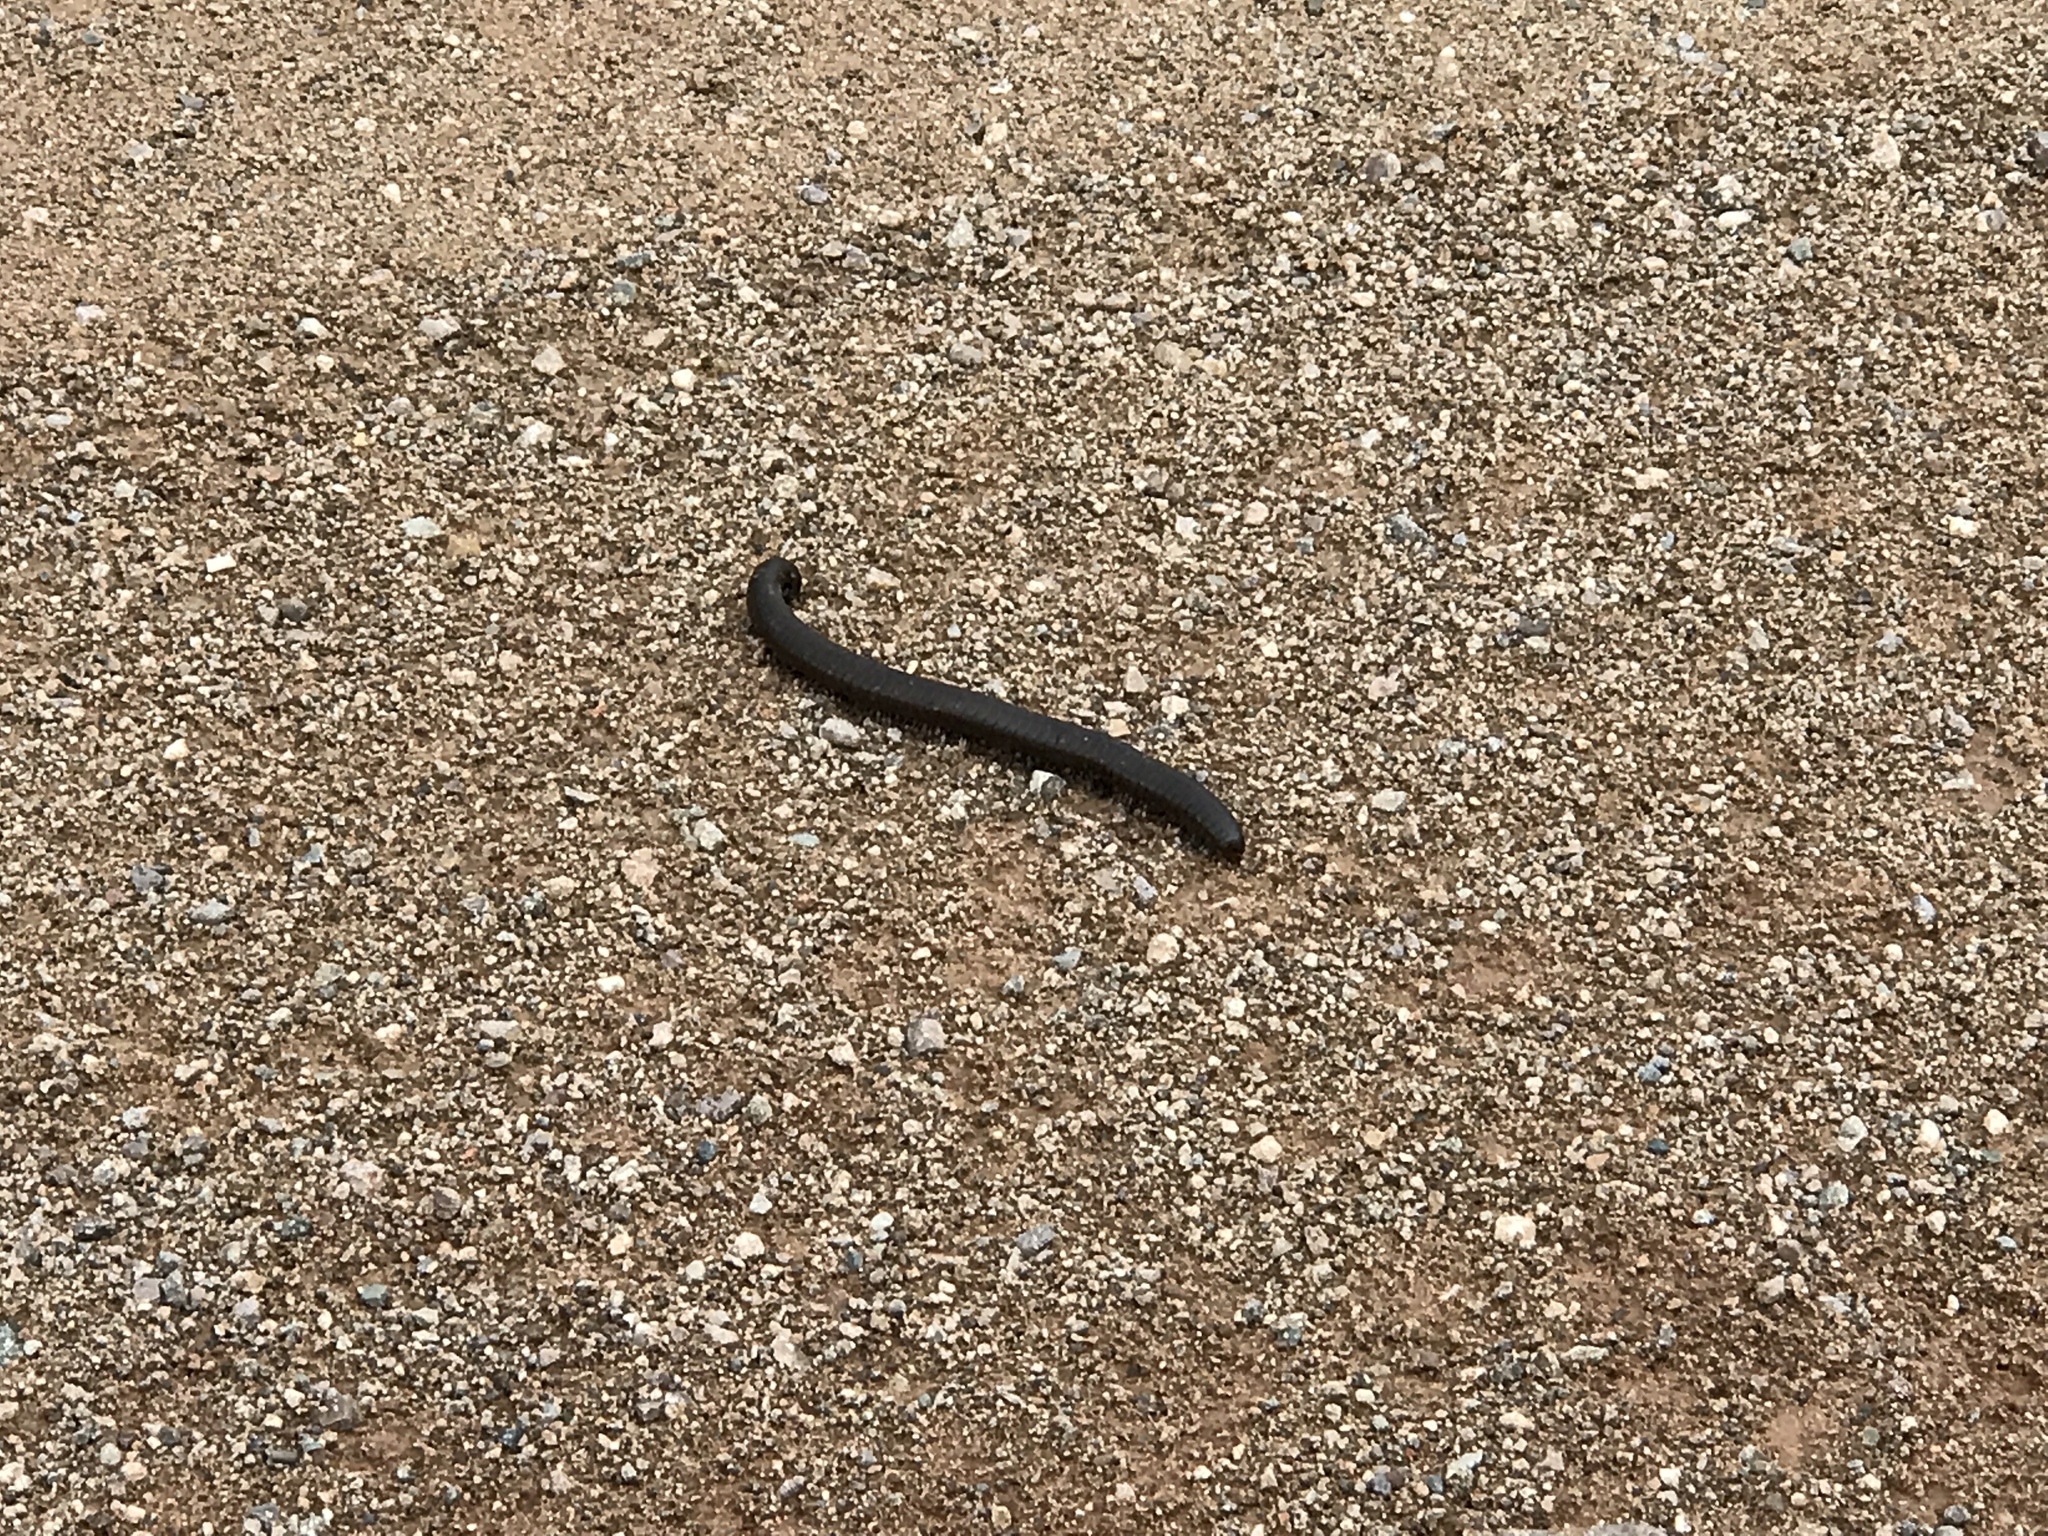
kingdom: Animalia
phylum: Arthropoda
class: Diplopoda
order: Spirostreptida
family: Spirostreptidae
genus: Orthoporus
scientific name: Orthoporus ornatus
